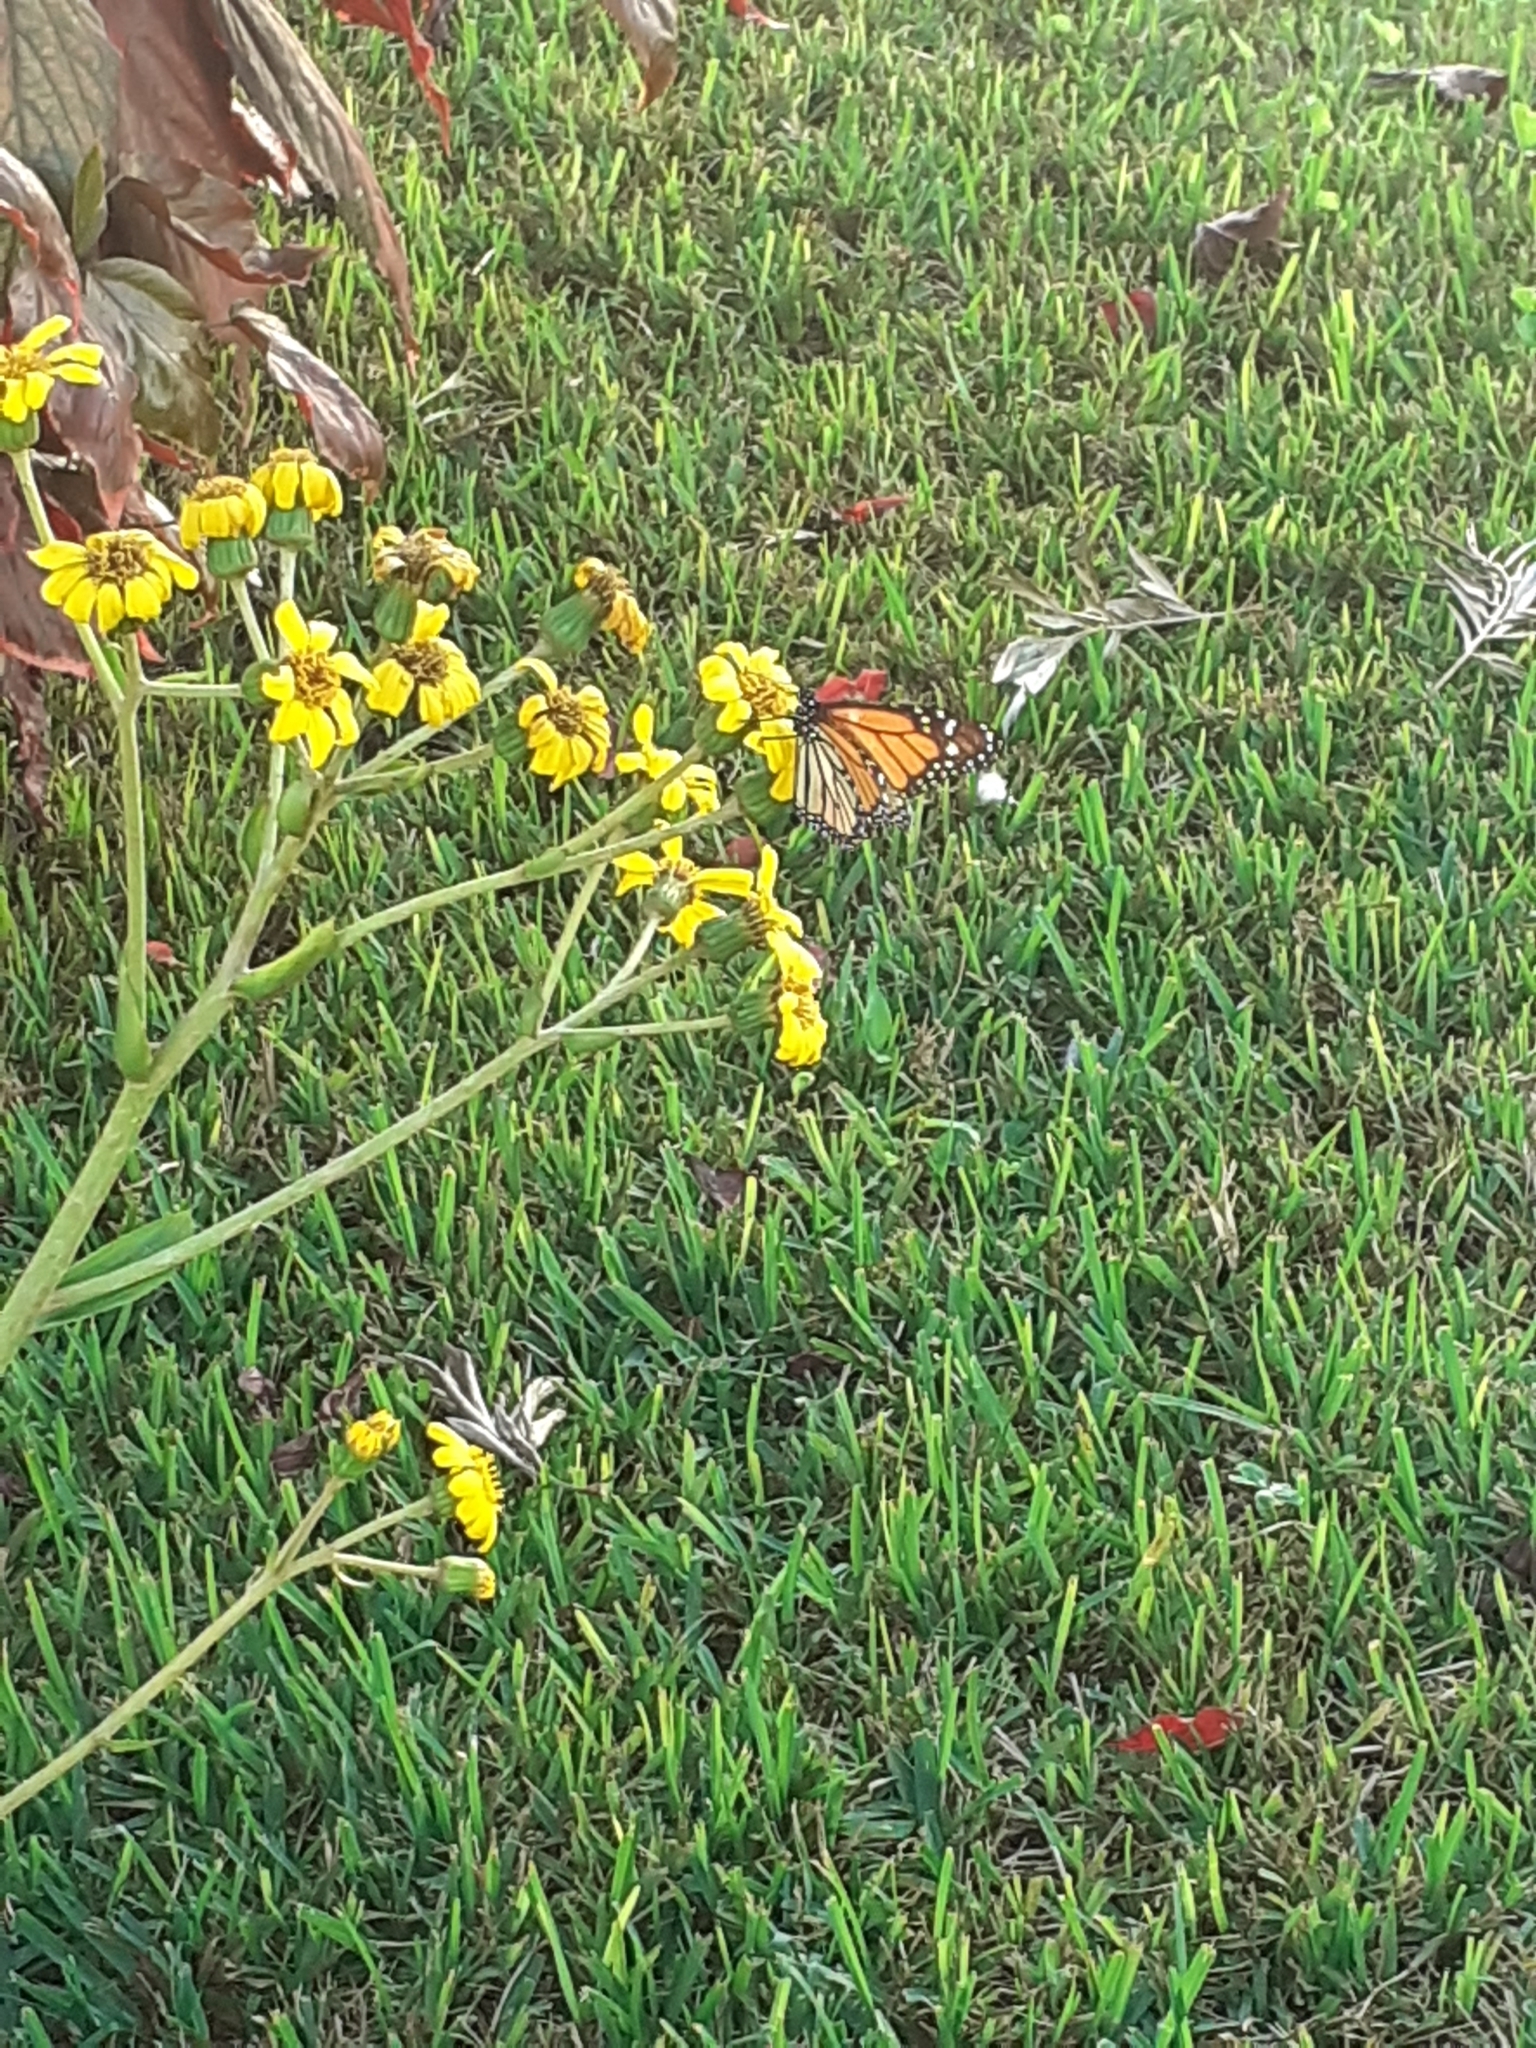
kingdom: Animalia
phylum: Arthropoda
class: Insecta
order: Lepidoptera
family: Nymphalidae
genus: Danaus
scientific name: Danaus plexippus
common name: Monarch
